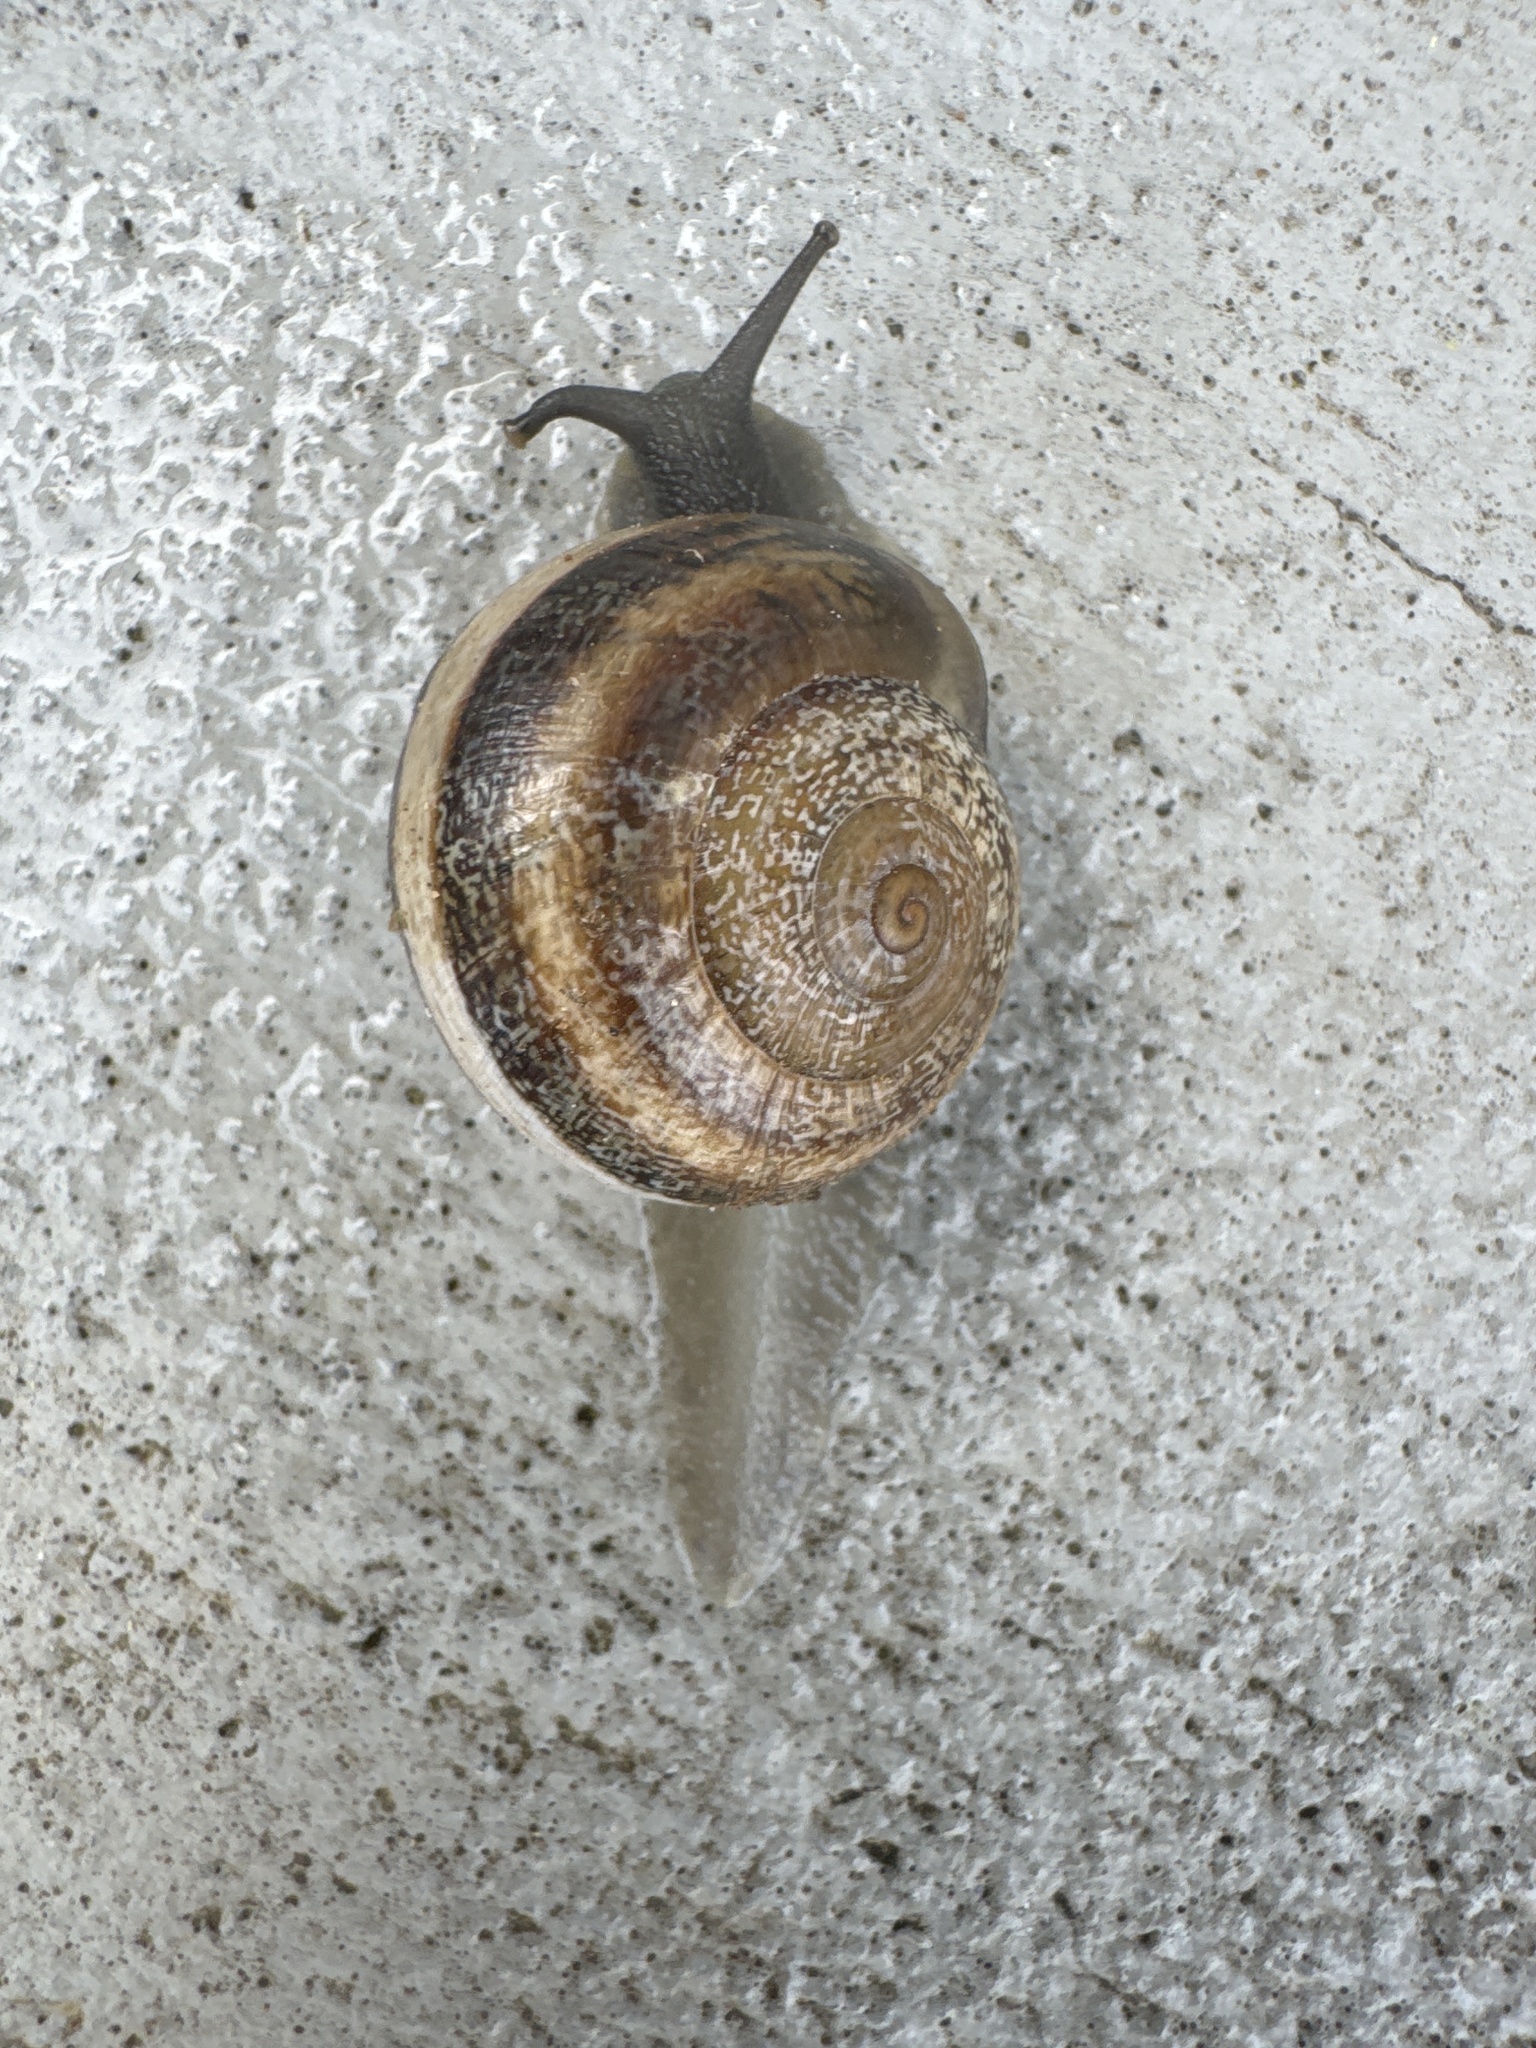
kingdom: Animalia
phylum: Mollusca
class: Gastropoda
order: Stylommatophora
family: Helicidae
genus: Otala
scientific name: Otala lactea
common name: Milk snail
